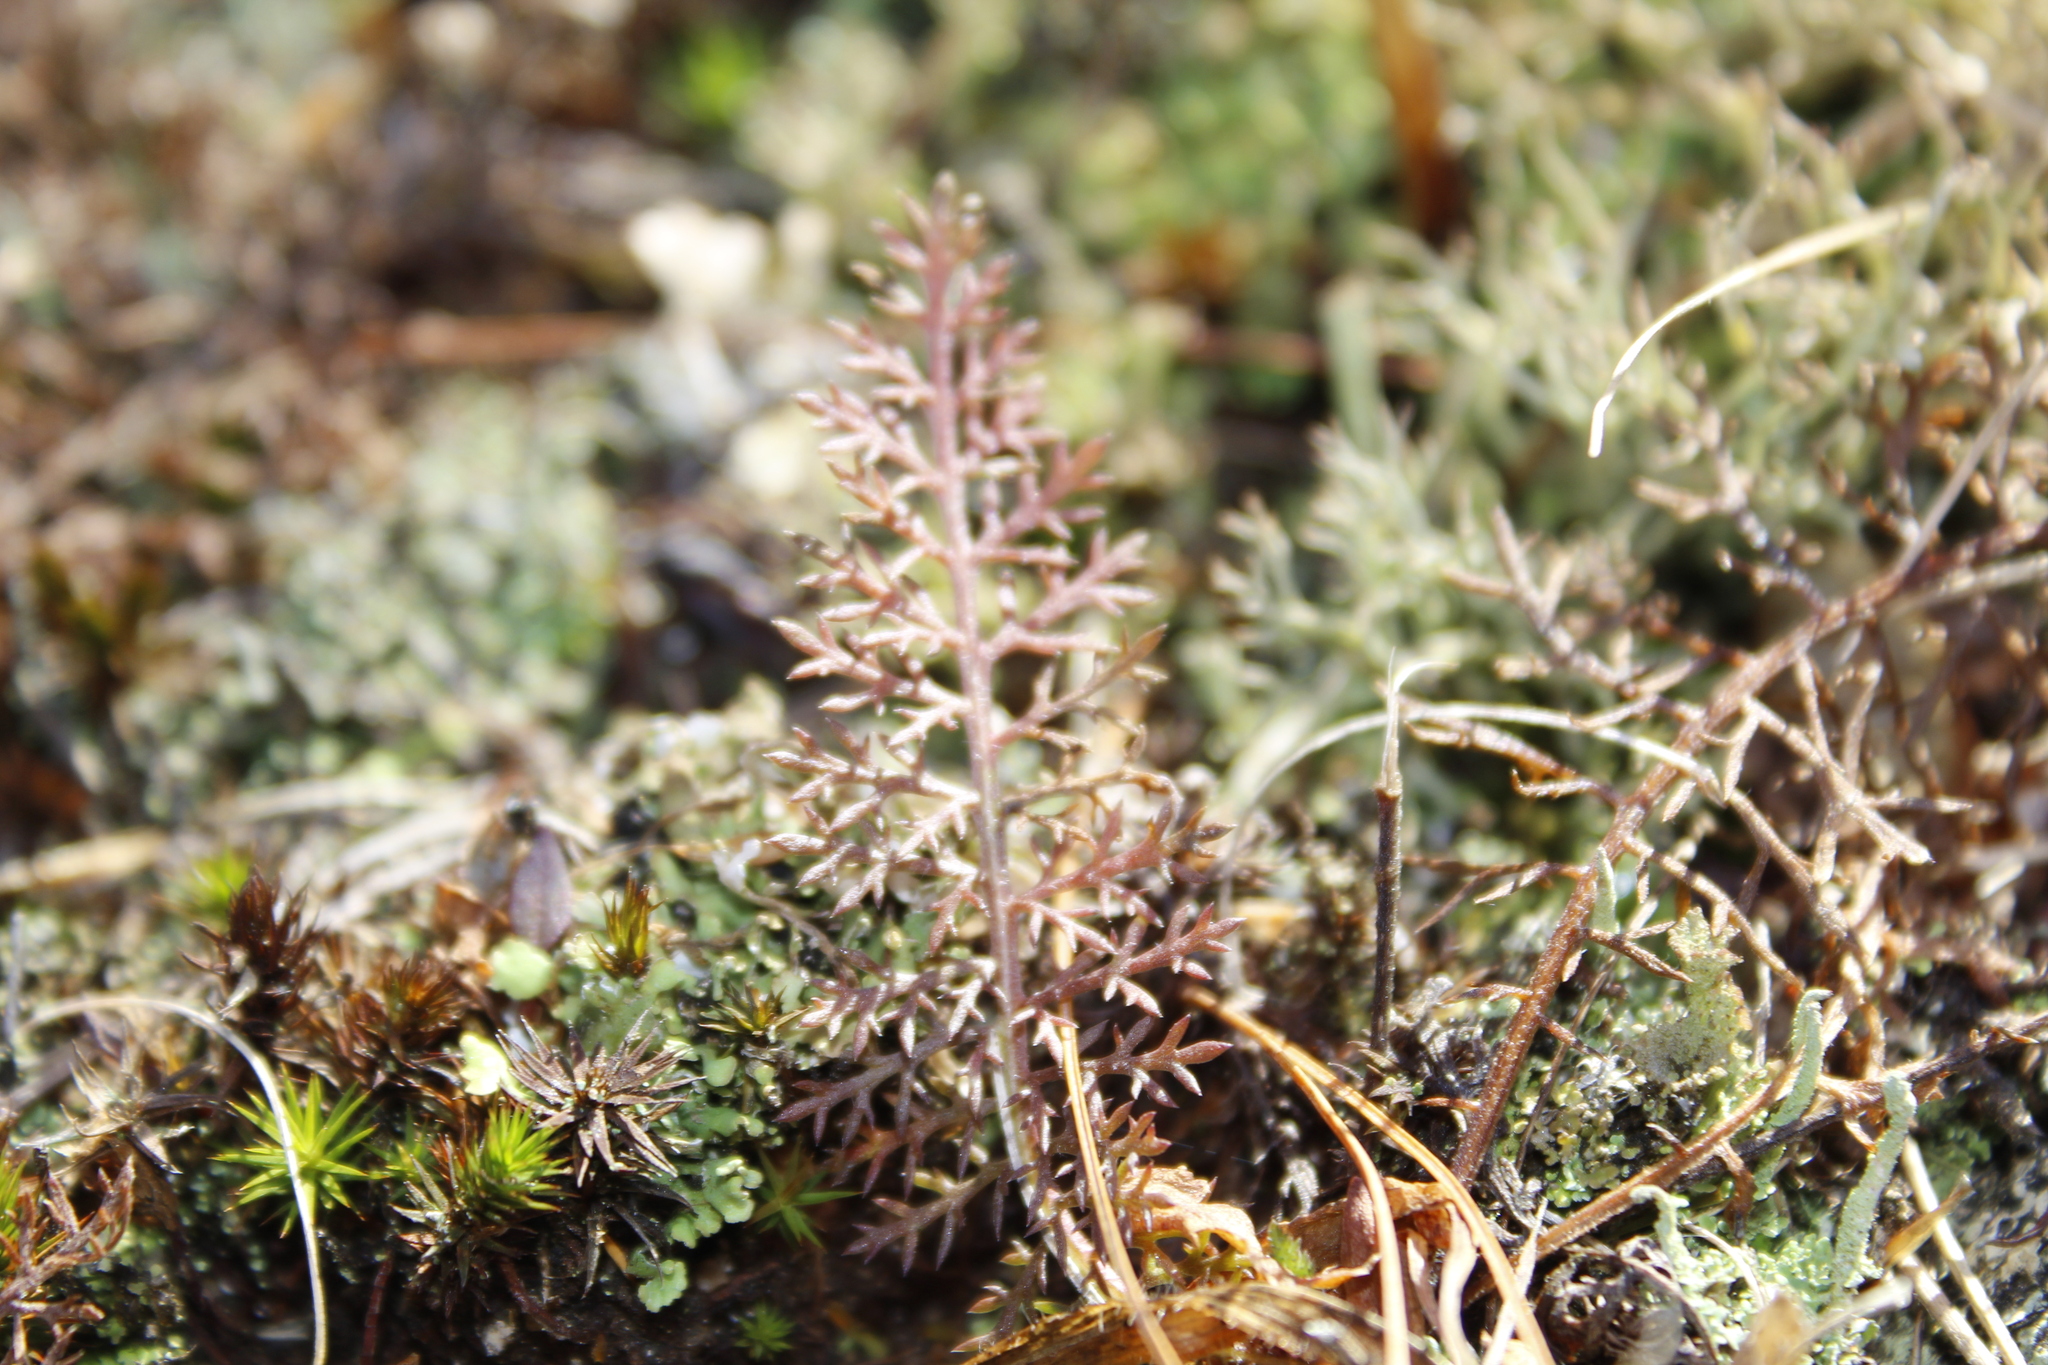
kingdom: Plantae
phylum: Tracheophyta
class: Magnoliopsida
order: Asterales
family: Asteraceae
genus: Achillea
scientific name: Achillea millefolium
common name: Yarrow
